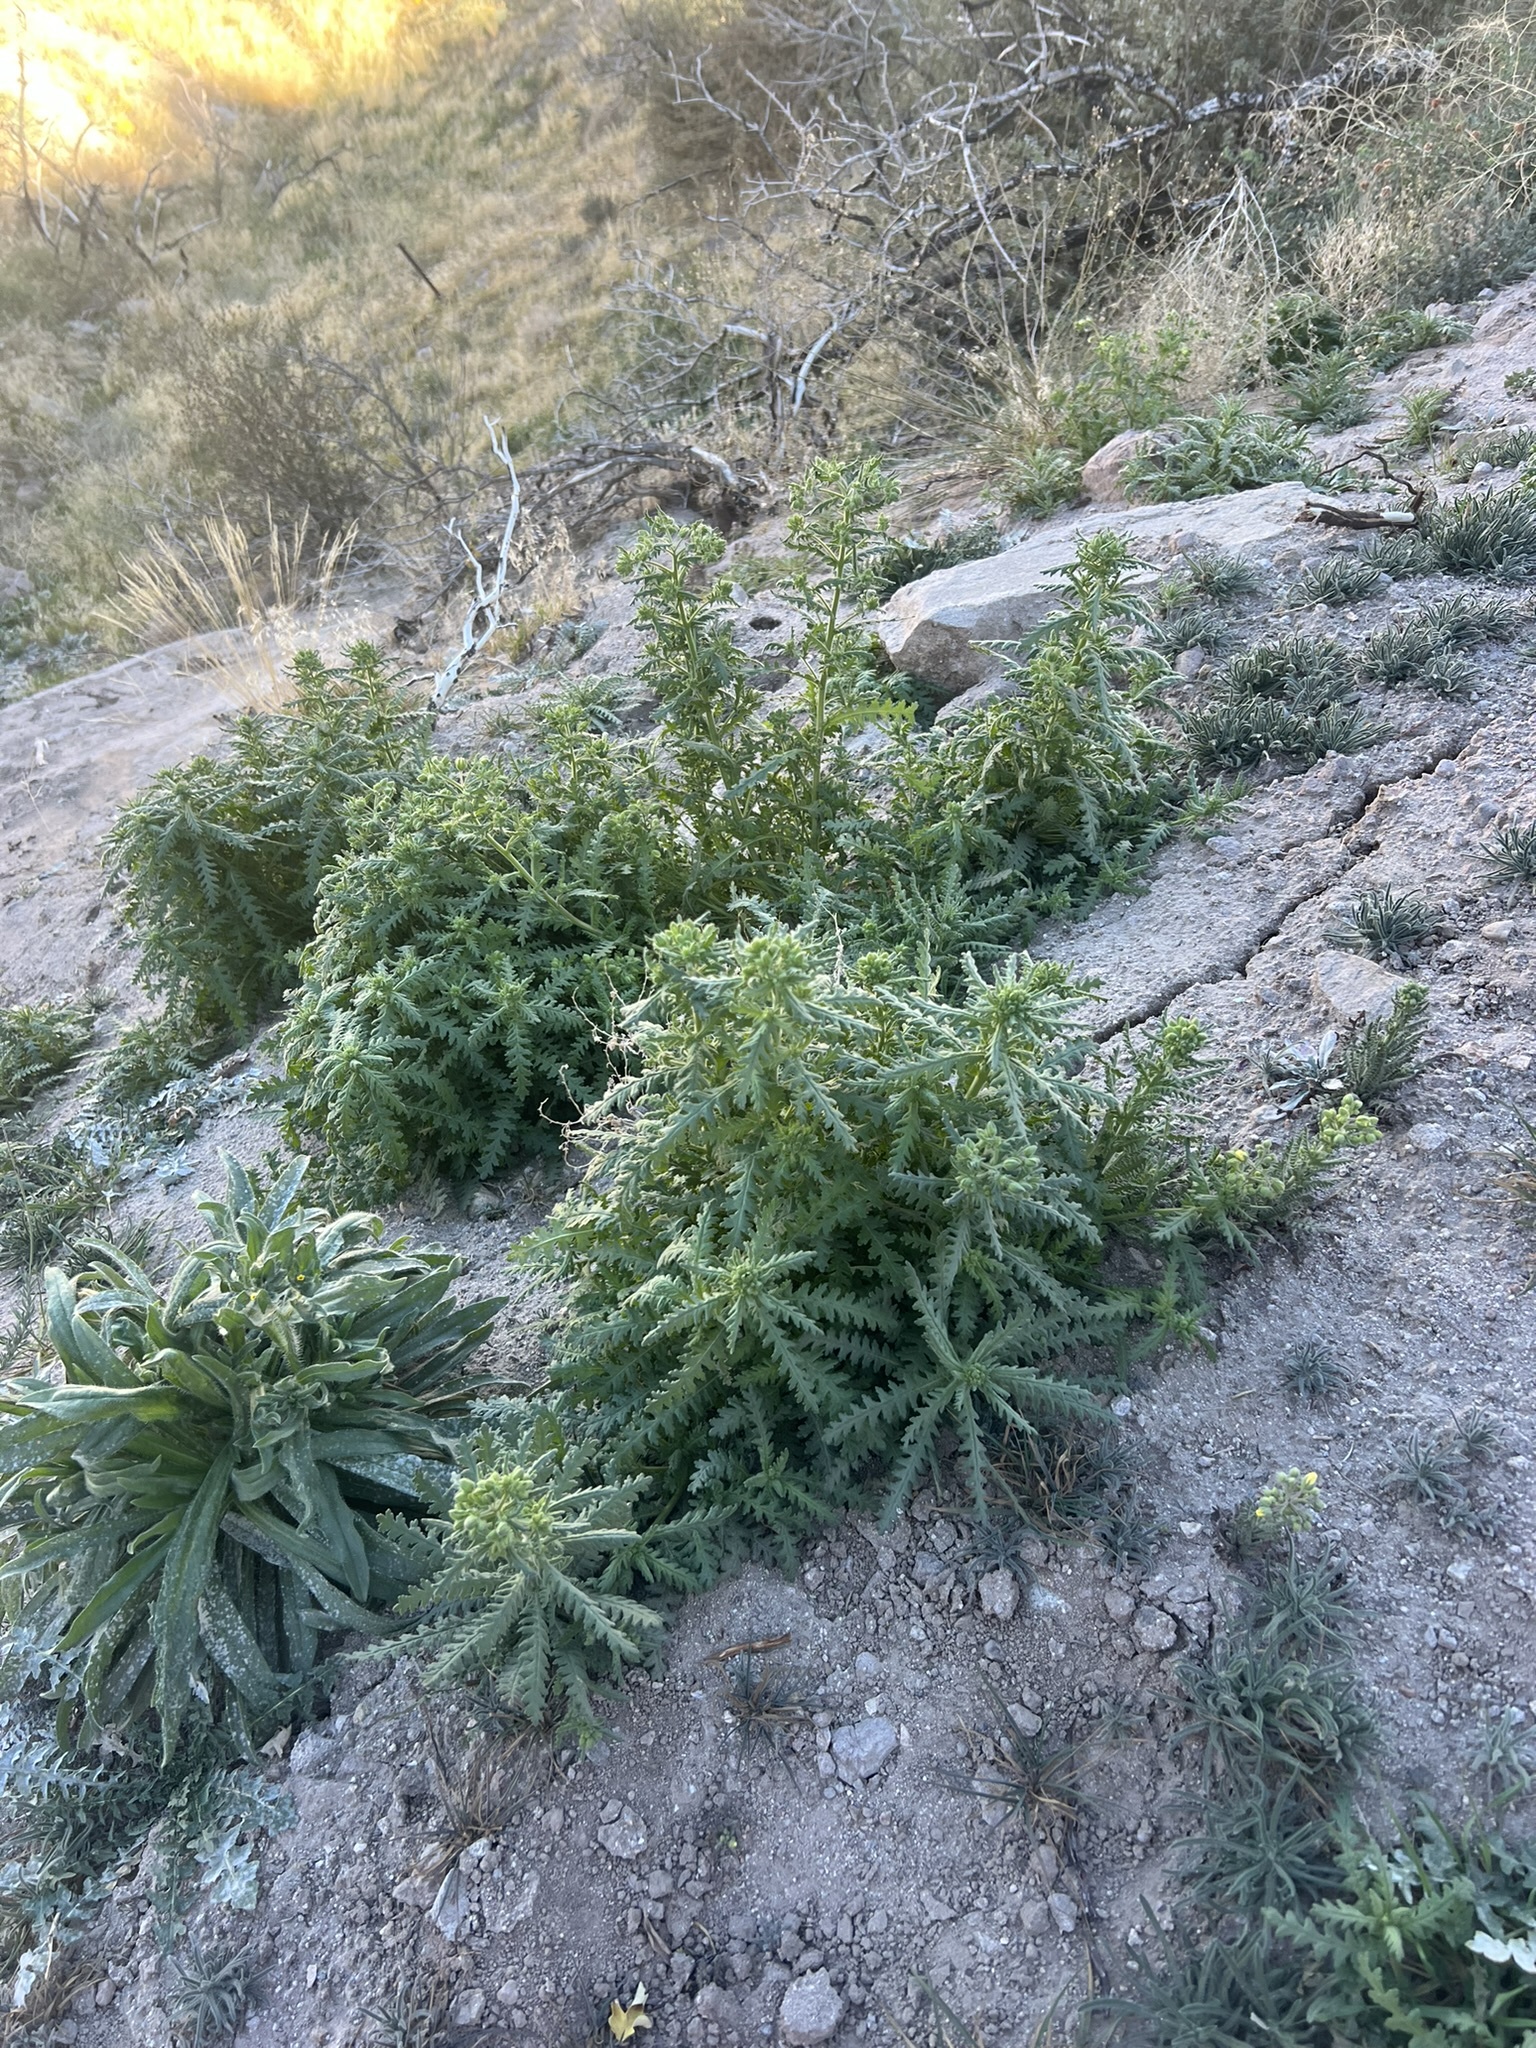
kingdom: Plantae
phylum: Tracheophyta
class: Magnoliopsida
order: Boraginales
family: Hydrophyllaceae
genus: Emmenanthe
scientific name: Emmenanthe penduliflora
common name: Whispering-bells
